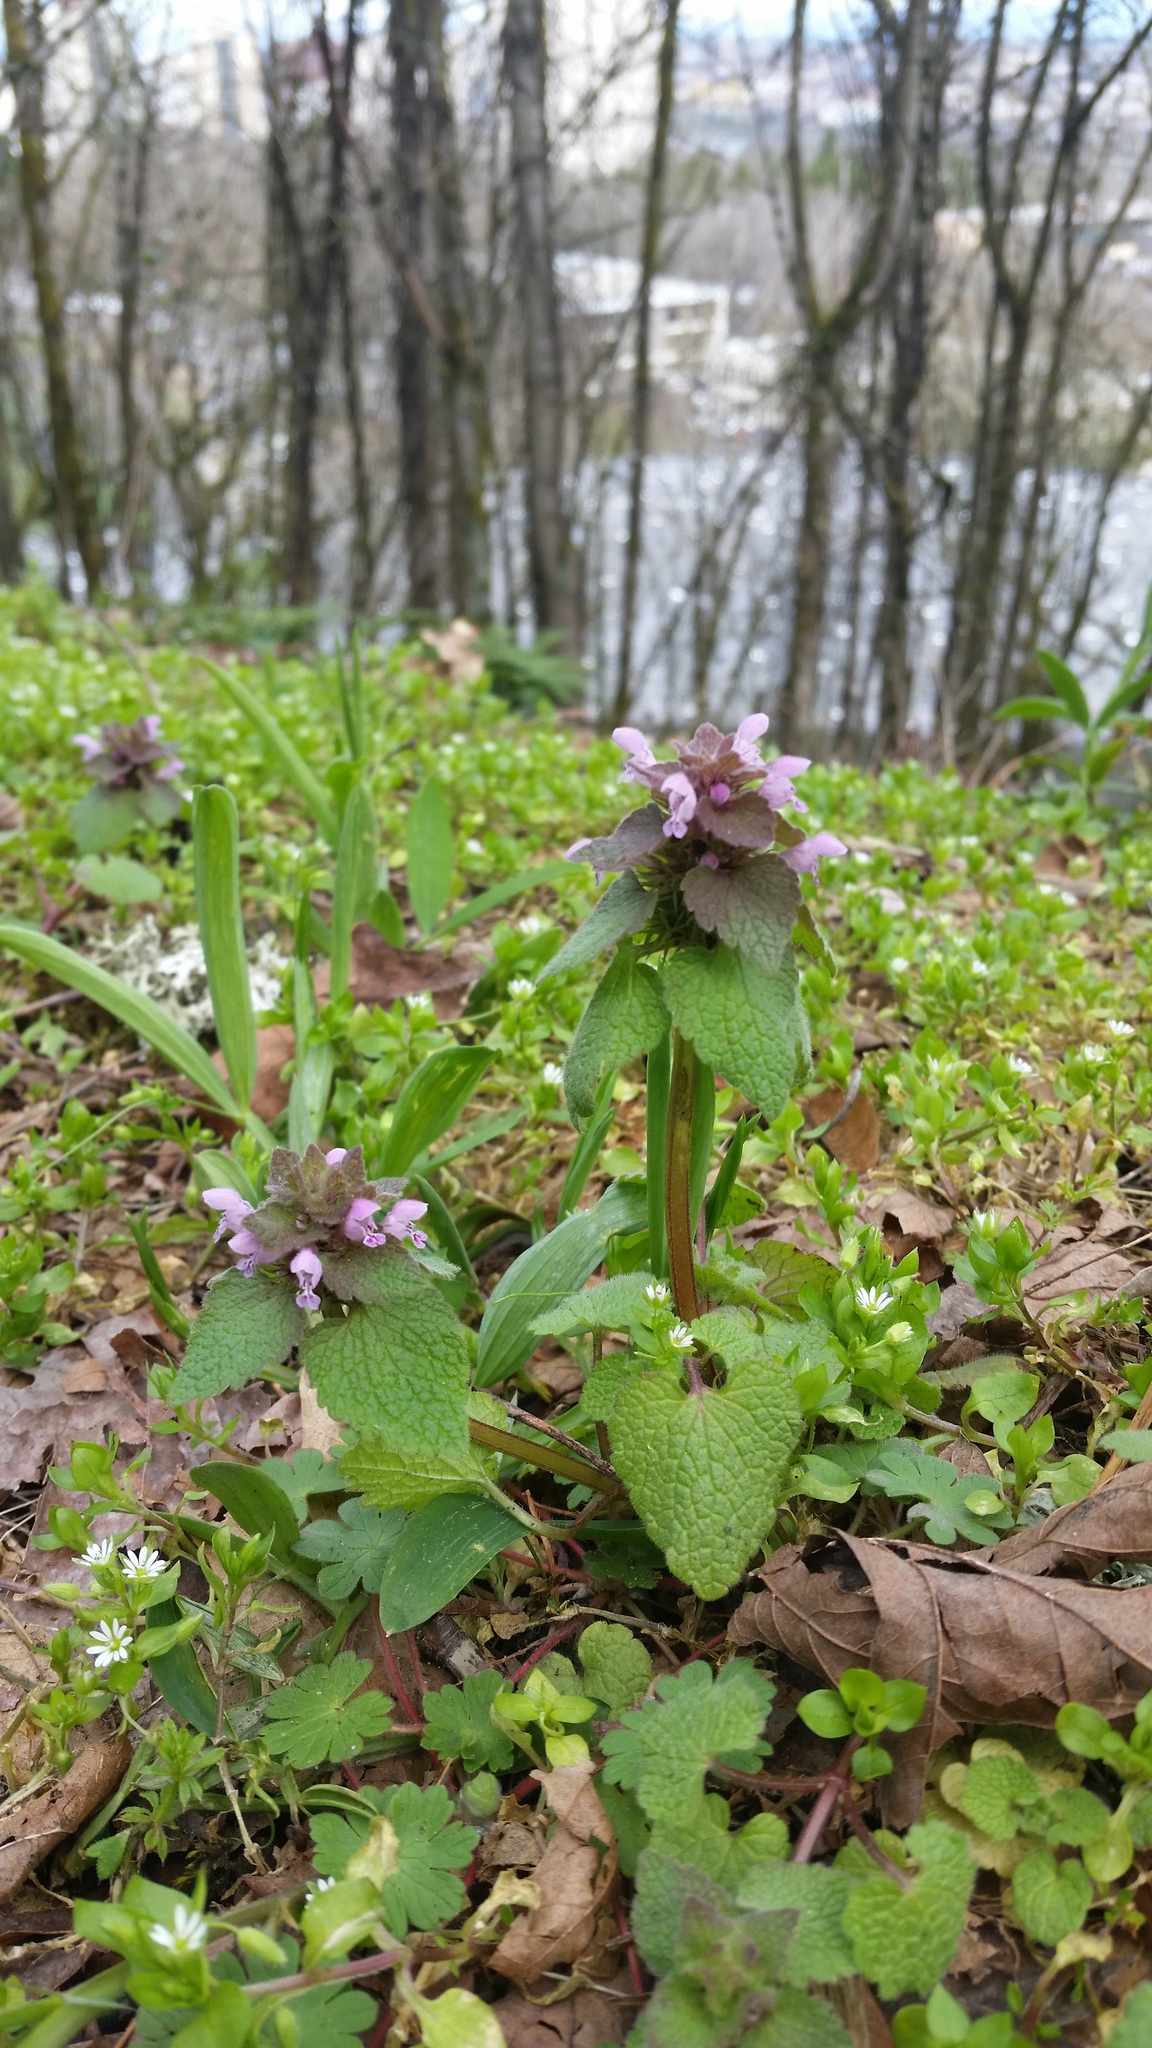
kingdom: Plantae
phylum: Tracheophyta
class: Magnoliopsida
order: Lamiales
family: Lamiaceae
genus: Lamium
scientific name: Lamium purpureum
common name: Red dead-nettle
